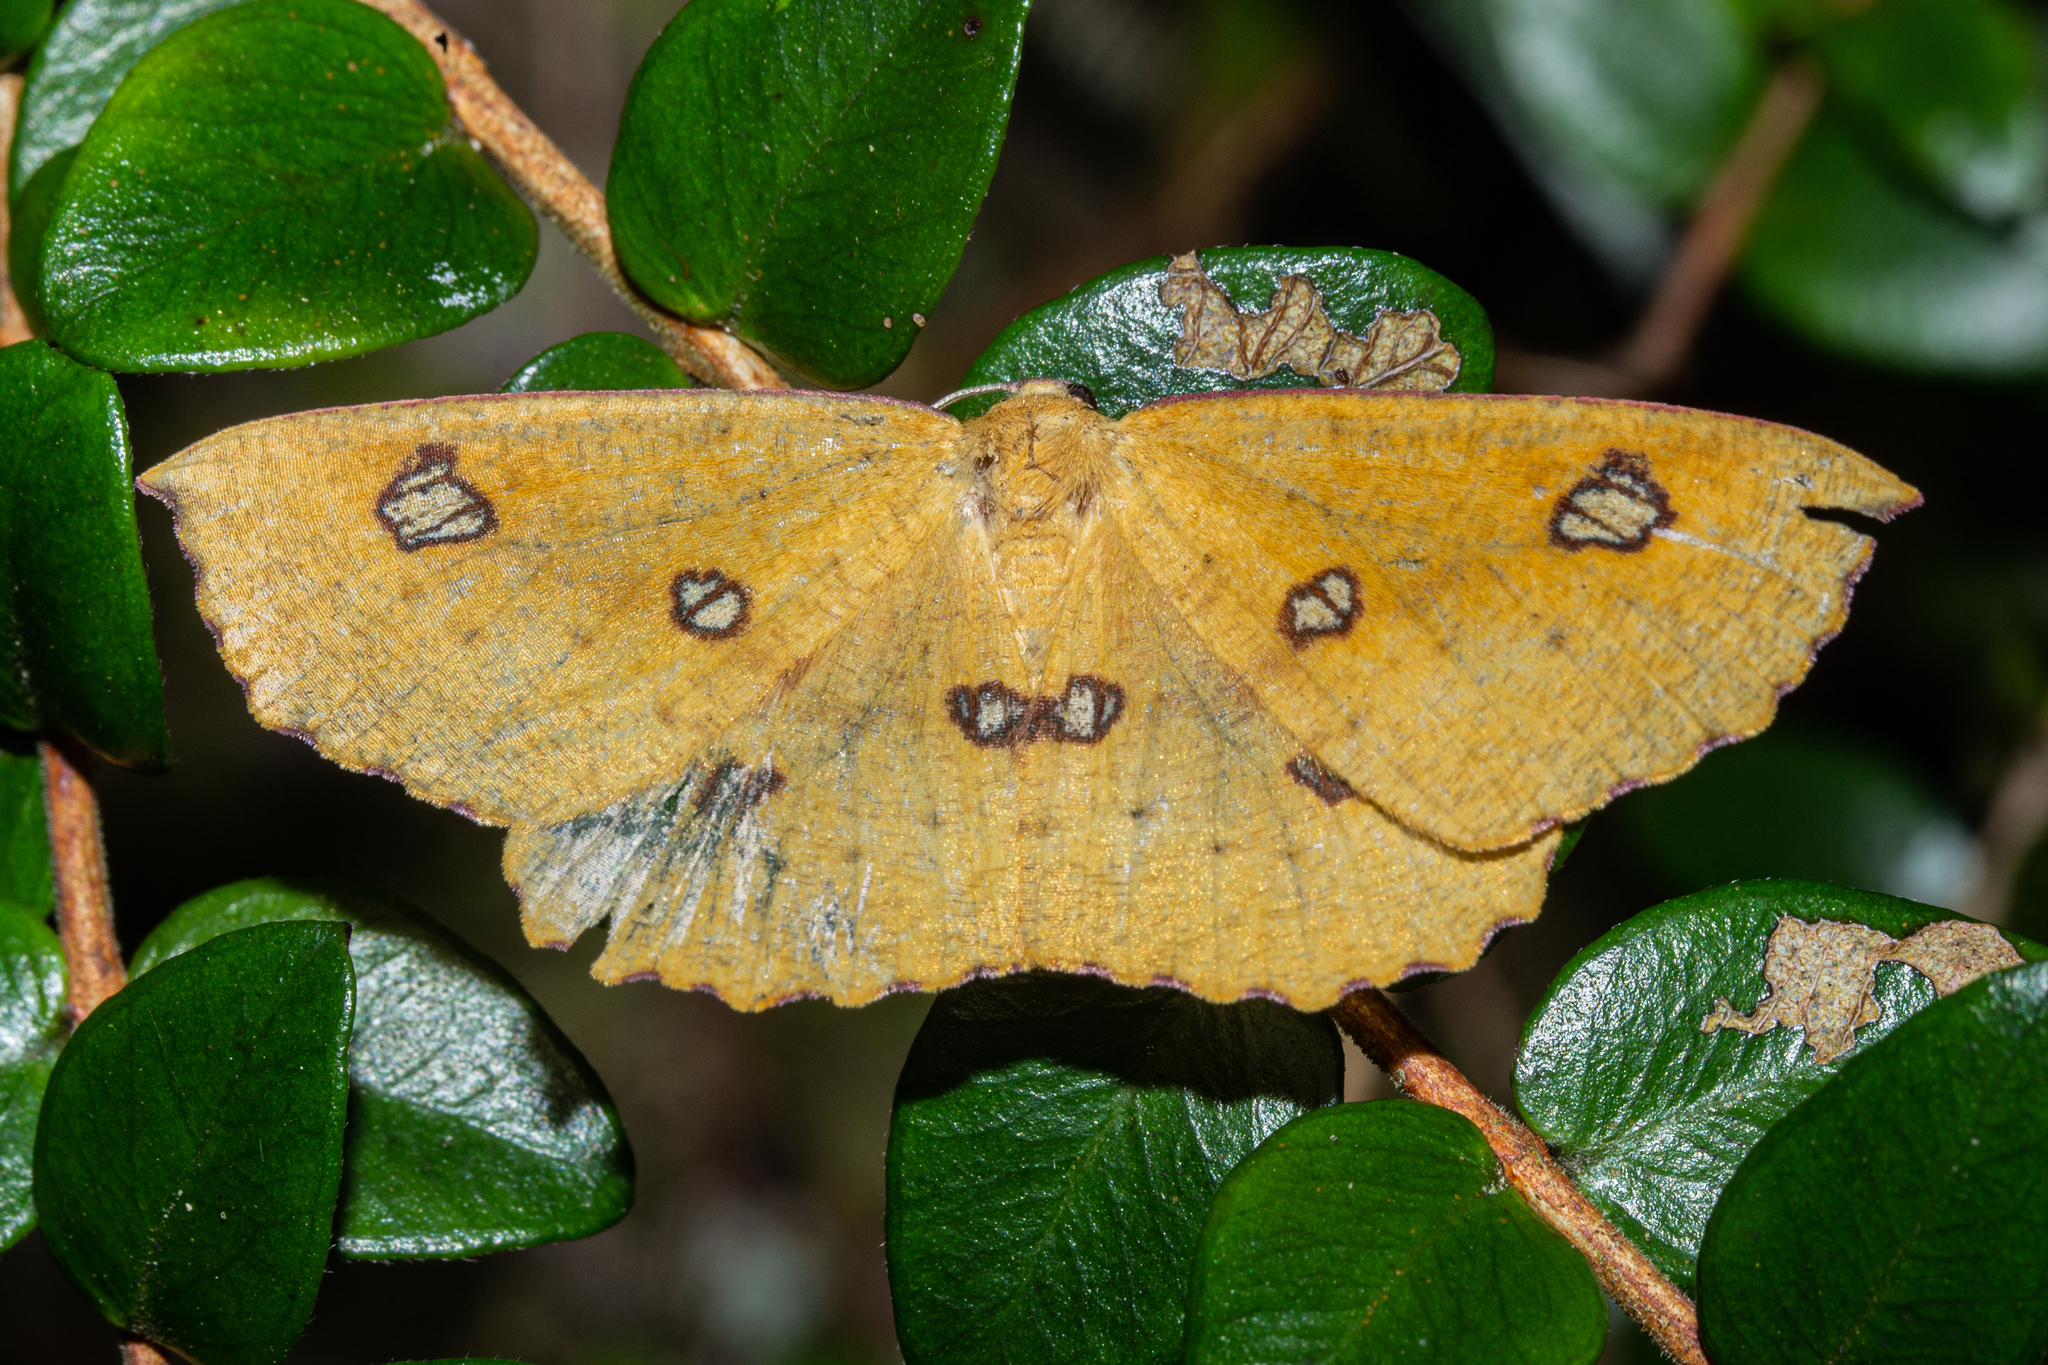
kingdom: Animalia
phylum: Arthropoda
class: Insecta
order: Lepidoptera
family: Geometridae
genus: Xyridacma
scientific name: Xyridacma alectoraria
